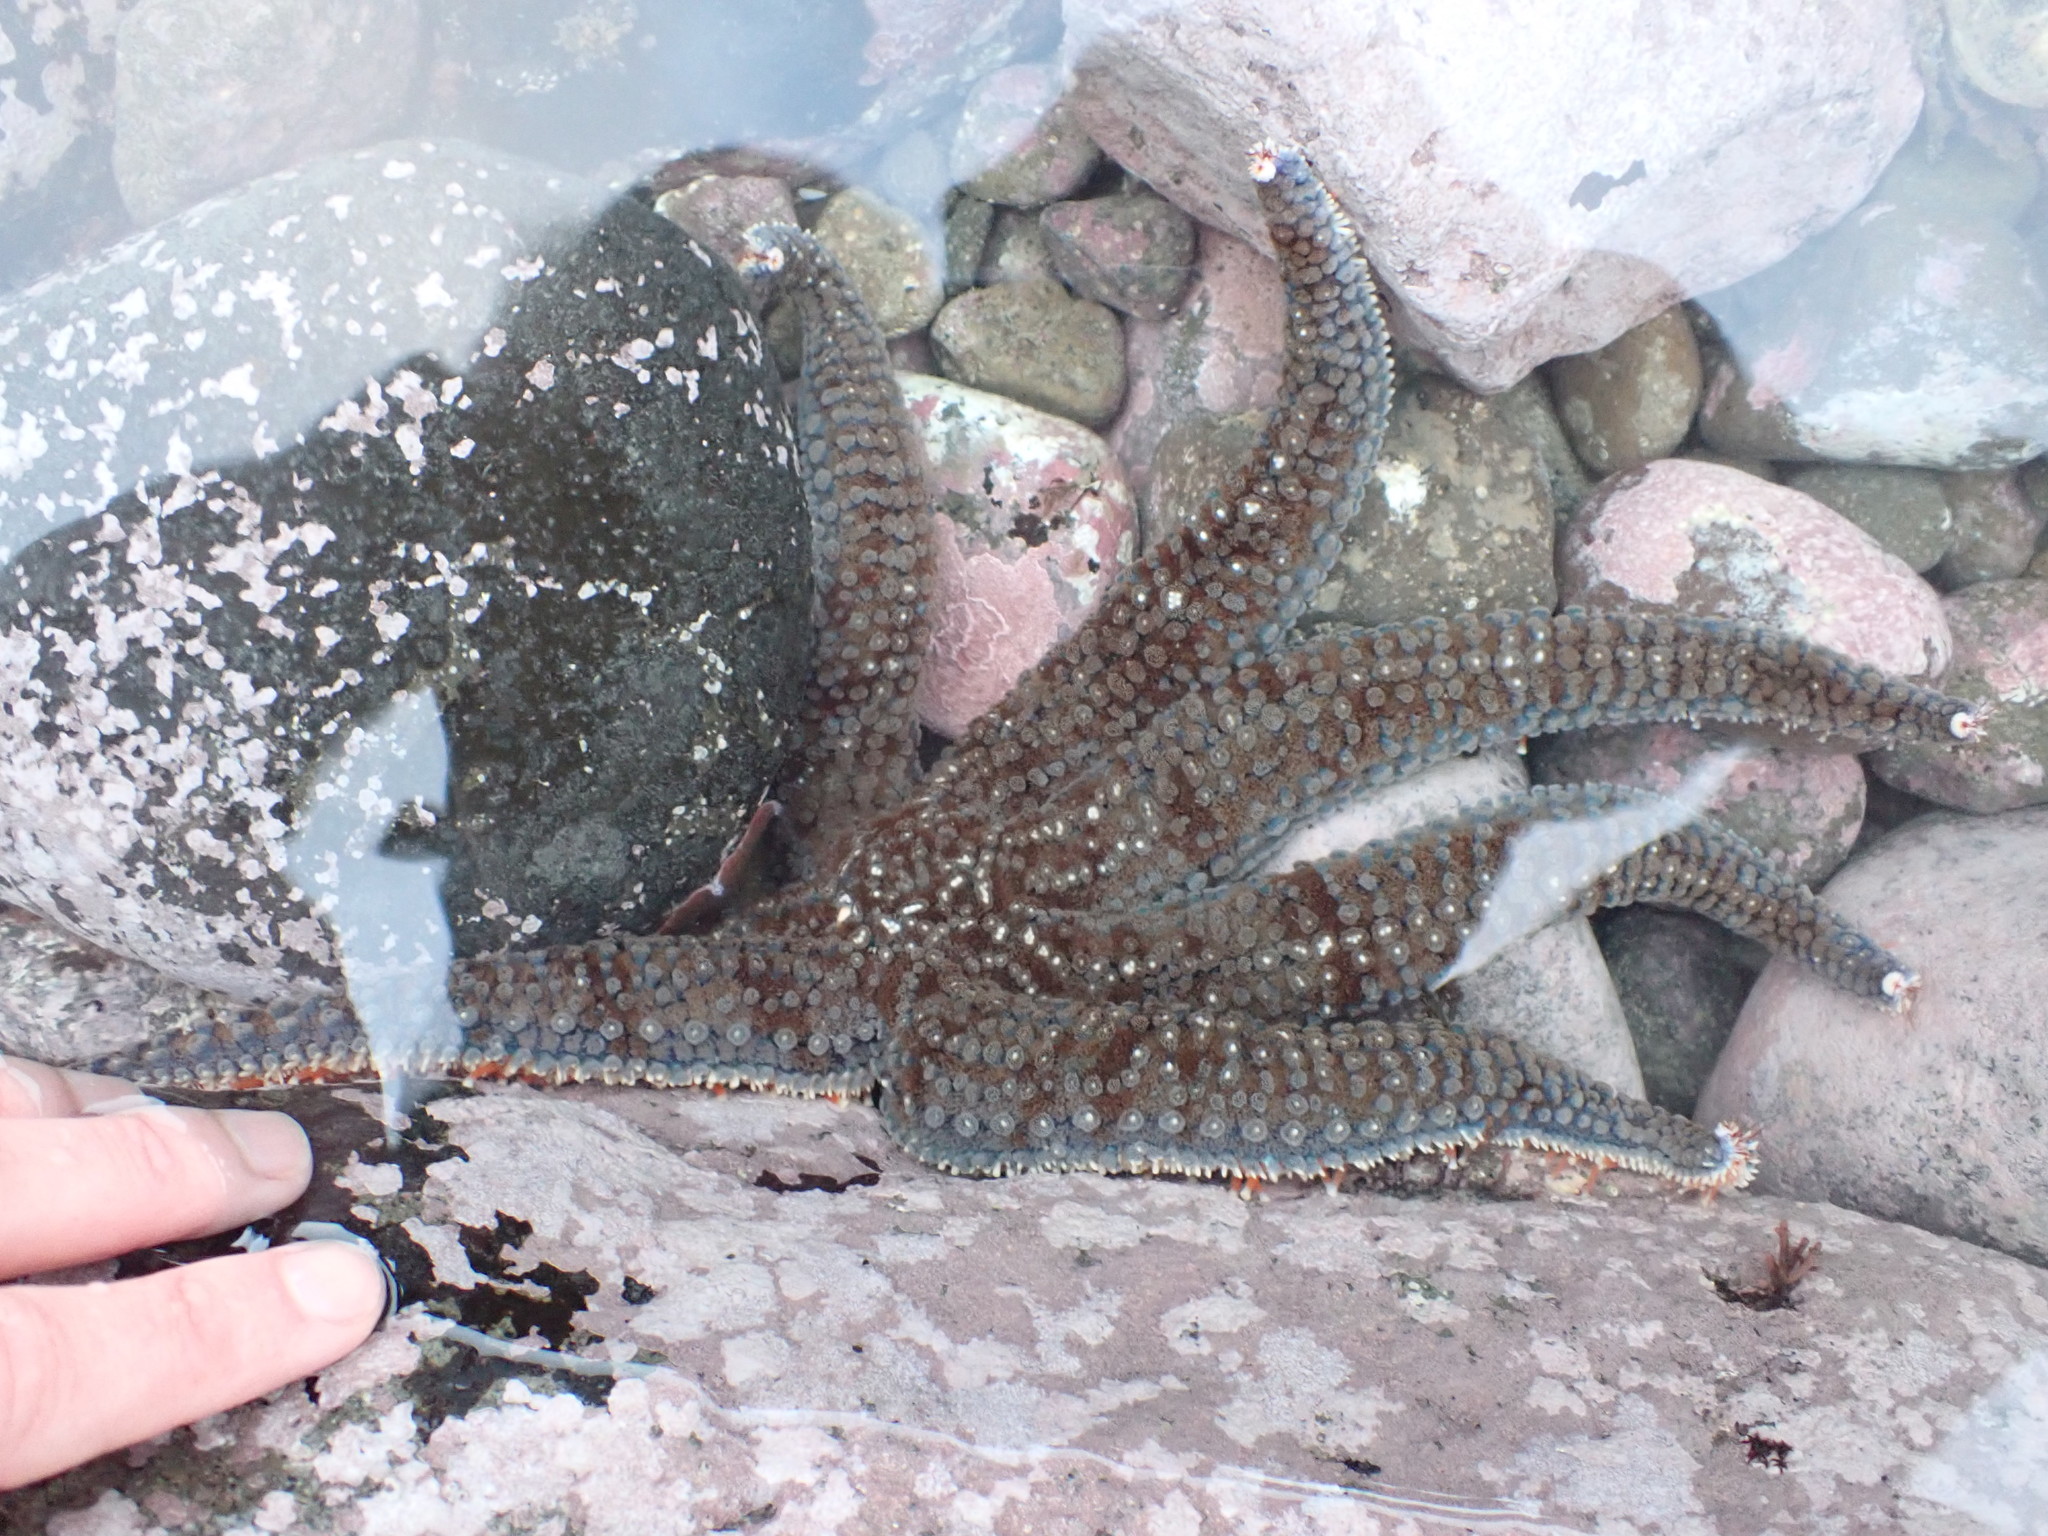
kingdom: Animalia
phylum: Echinodermata
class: Asteroidea
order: Forcipulatida
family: Asteriidae
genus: Astrostole
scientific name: Astrostole scabra
